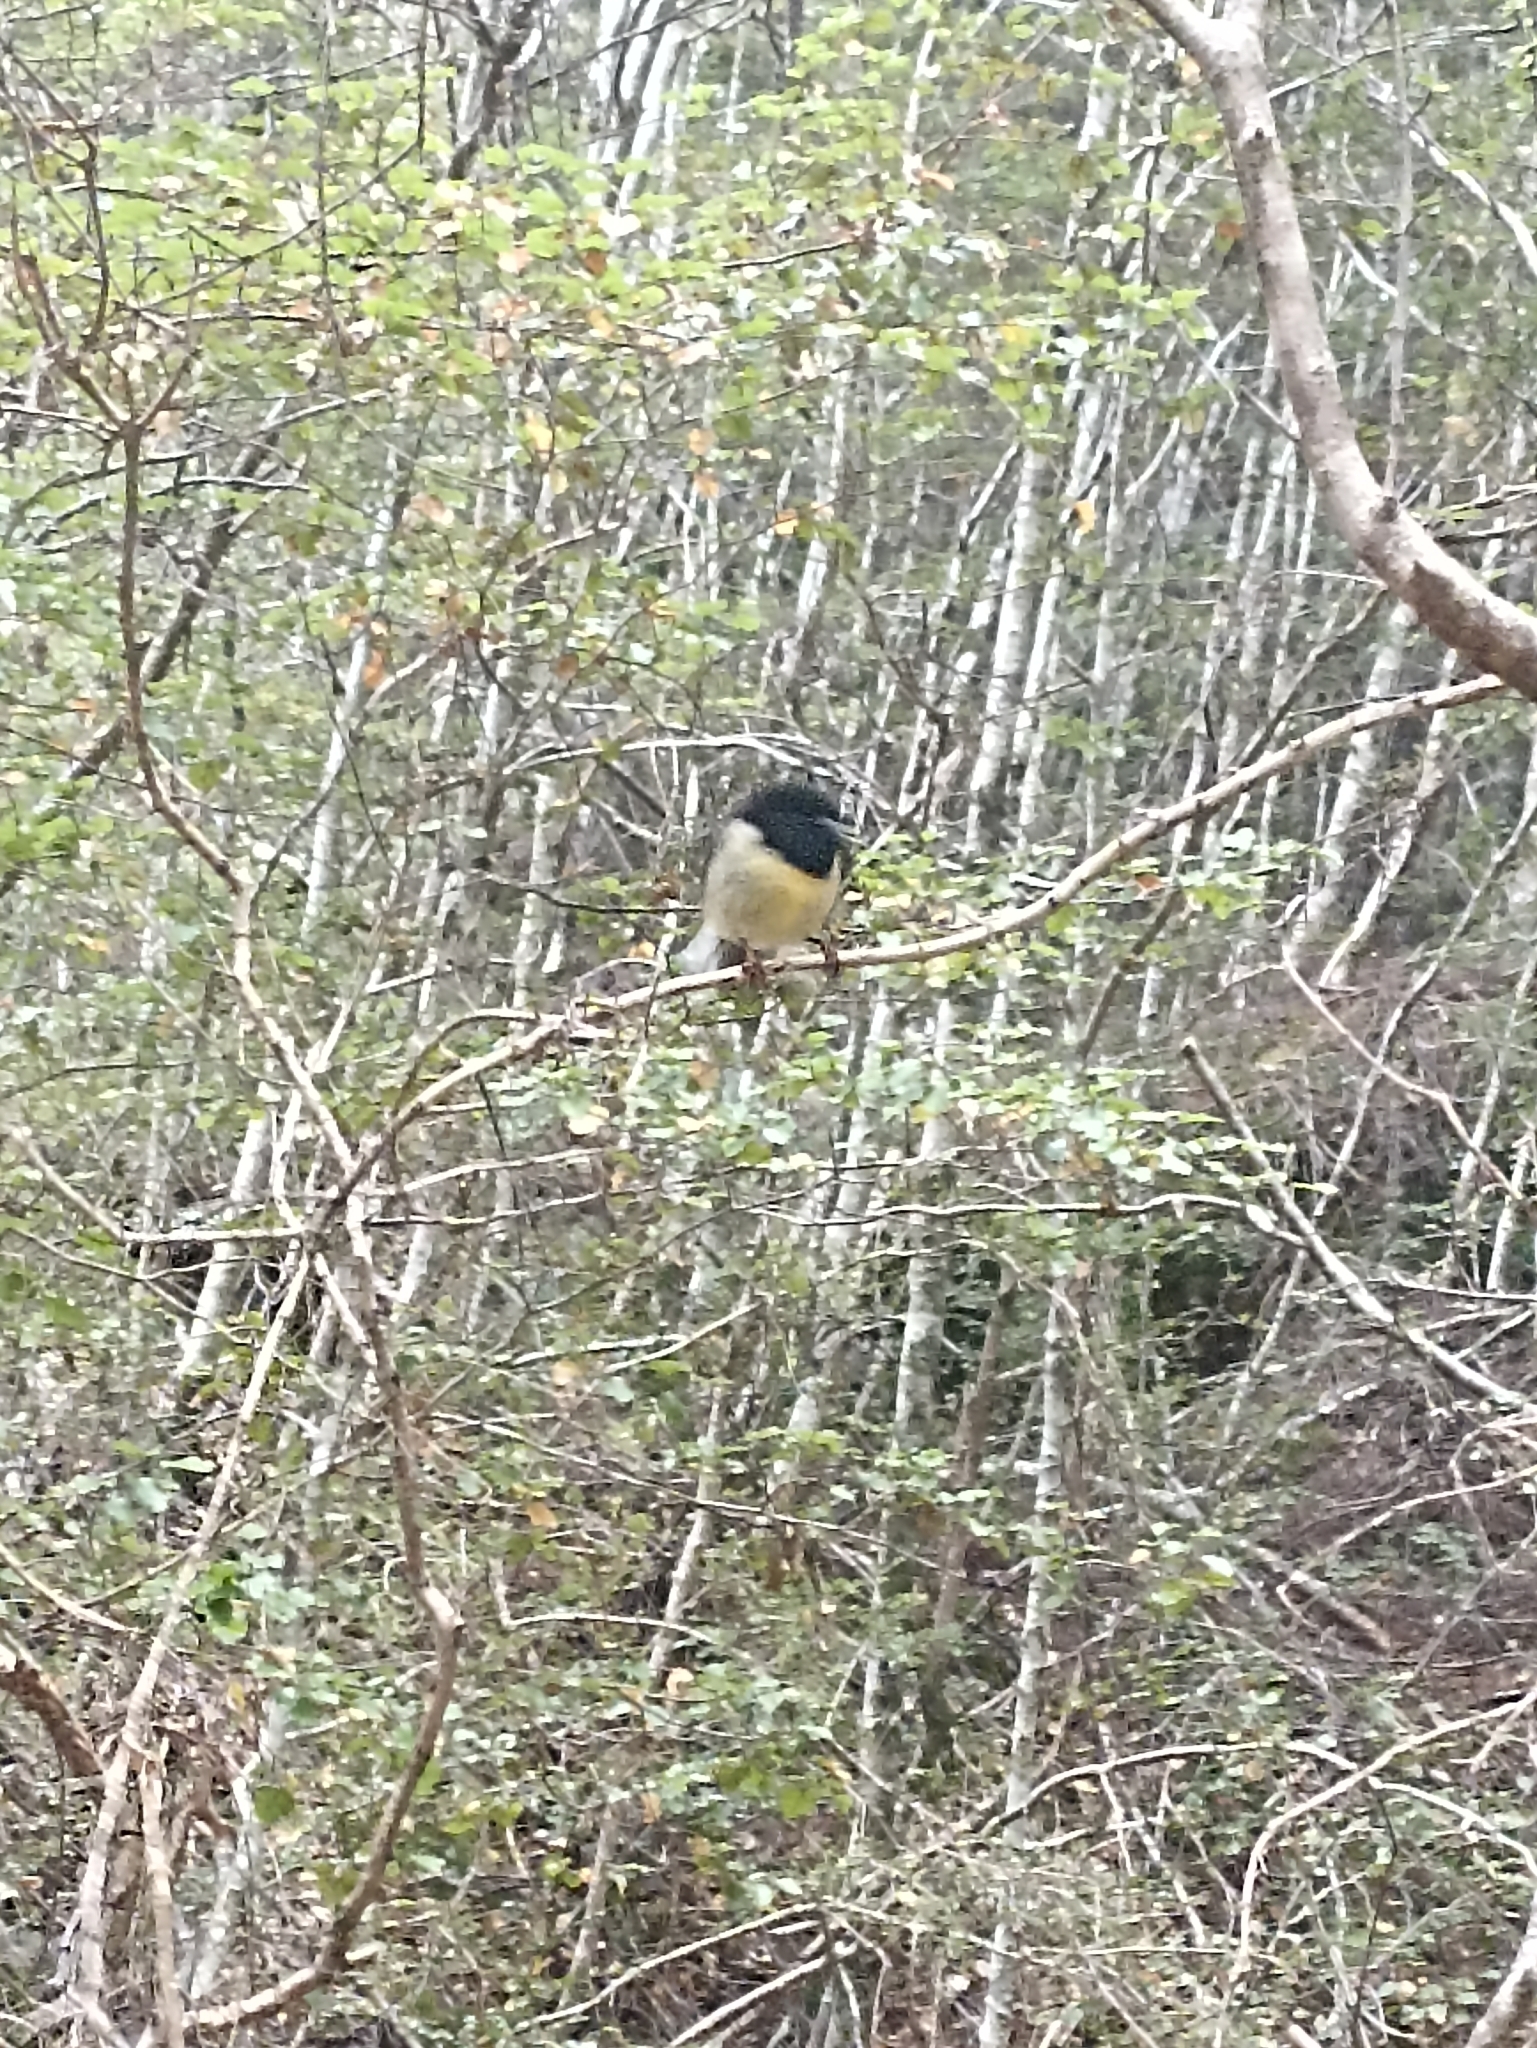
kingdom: Animalia
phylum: Chordata
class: Aves
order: Passeriformes
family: Petroicidae
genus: Petroica
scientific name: Petroica macrocephala
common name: Tomtit
